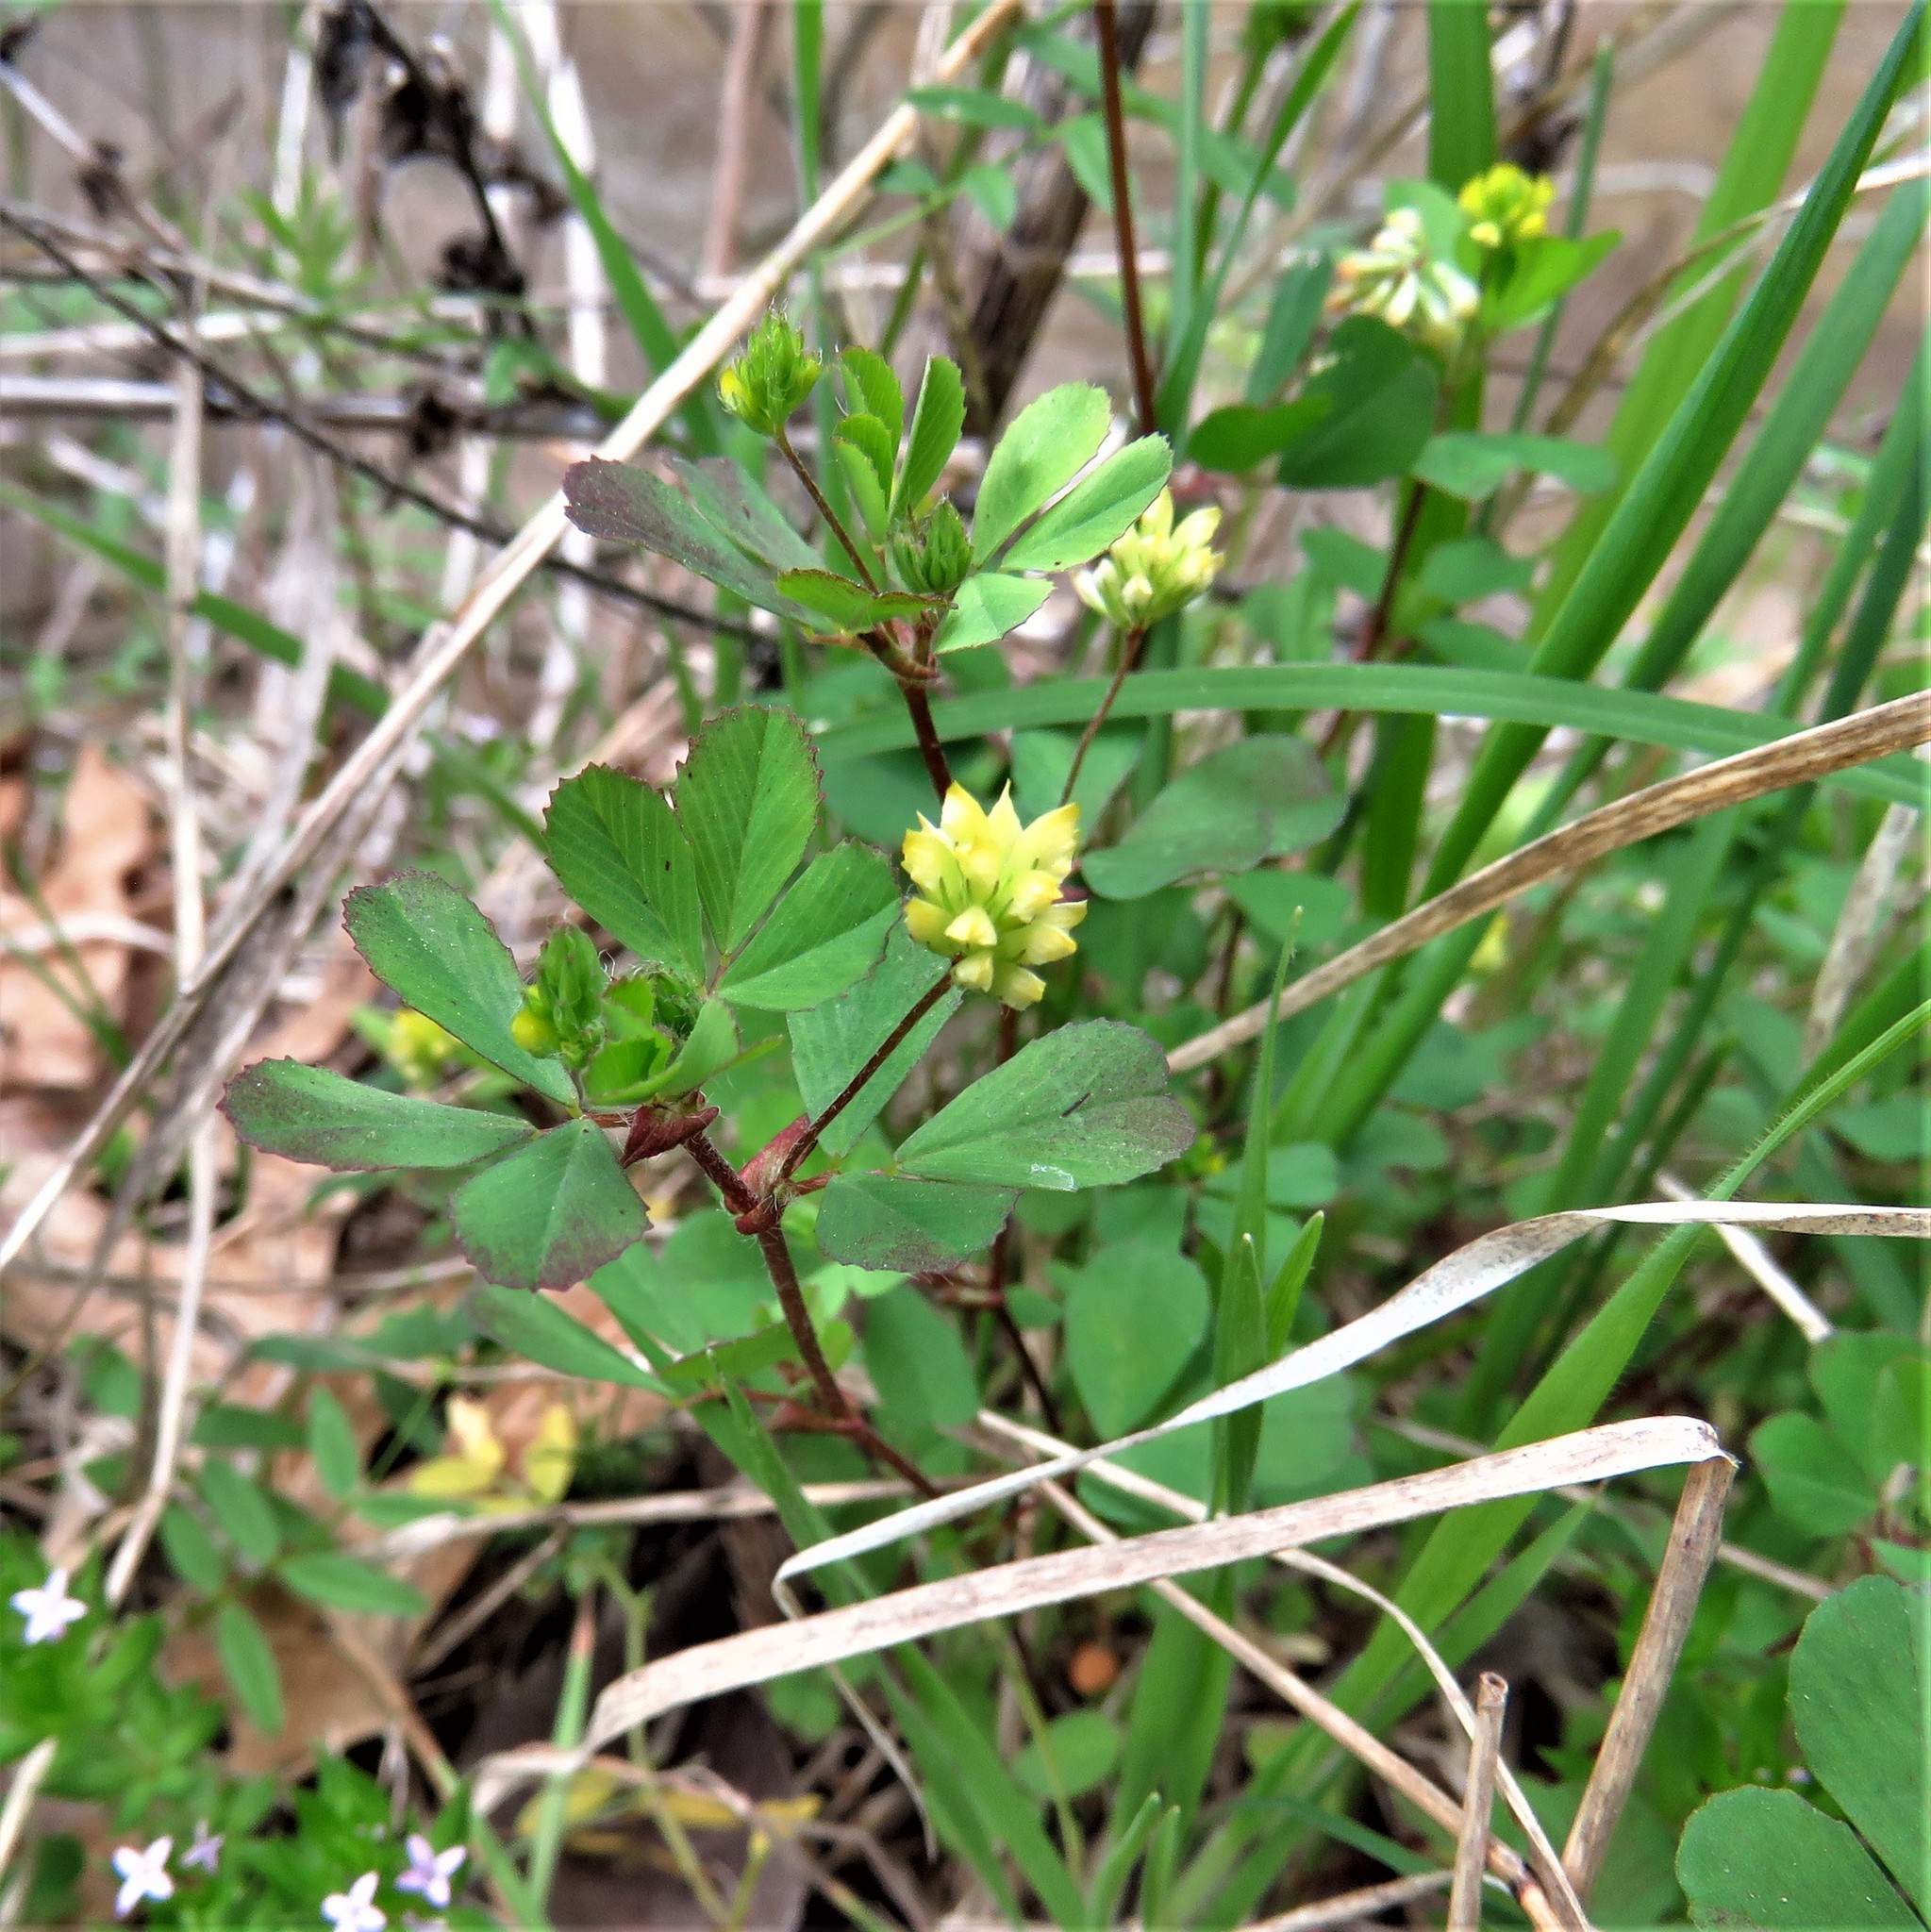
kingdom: Plantae
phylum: Tracheophyta
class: Magnoliopsida
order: Fabales
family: Fabaceae
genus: Trifolium
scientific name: Trifolium dubium
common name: Suckling clover
